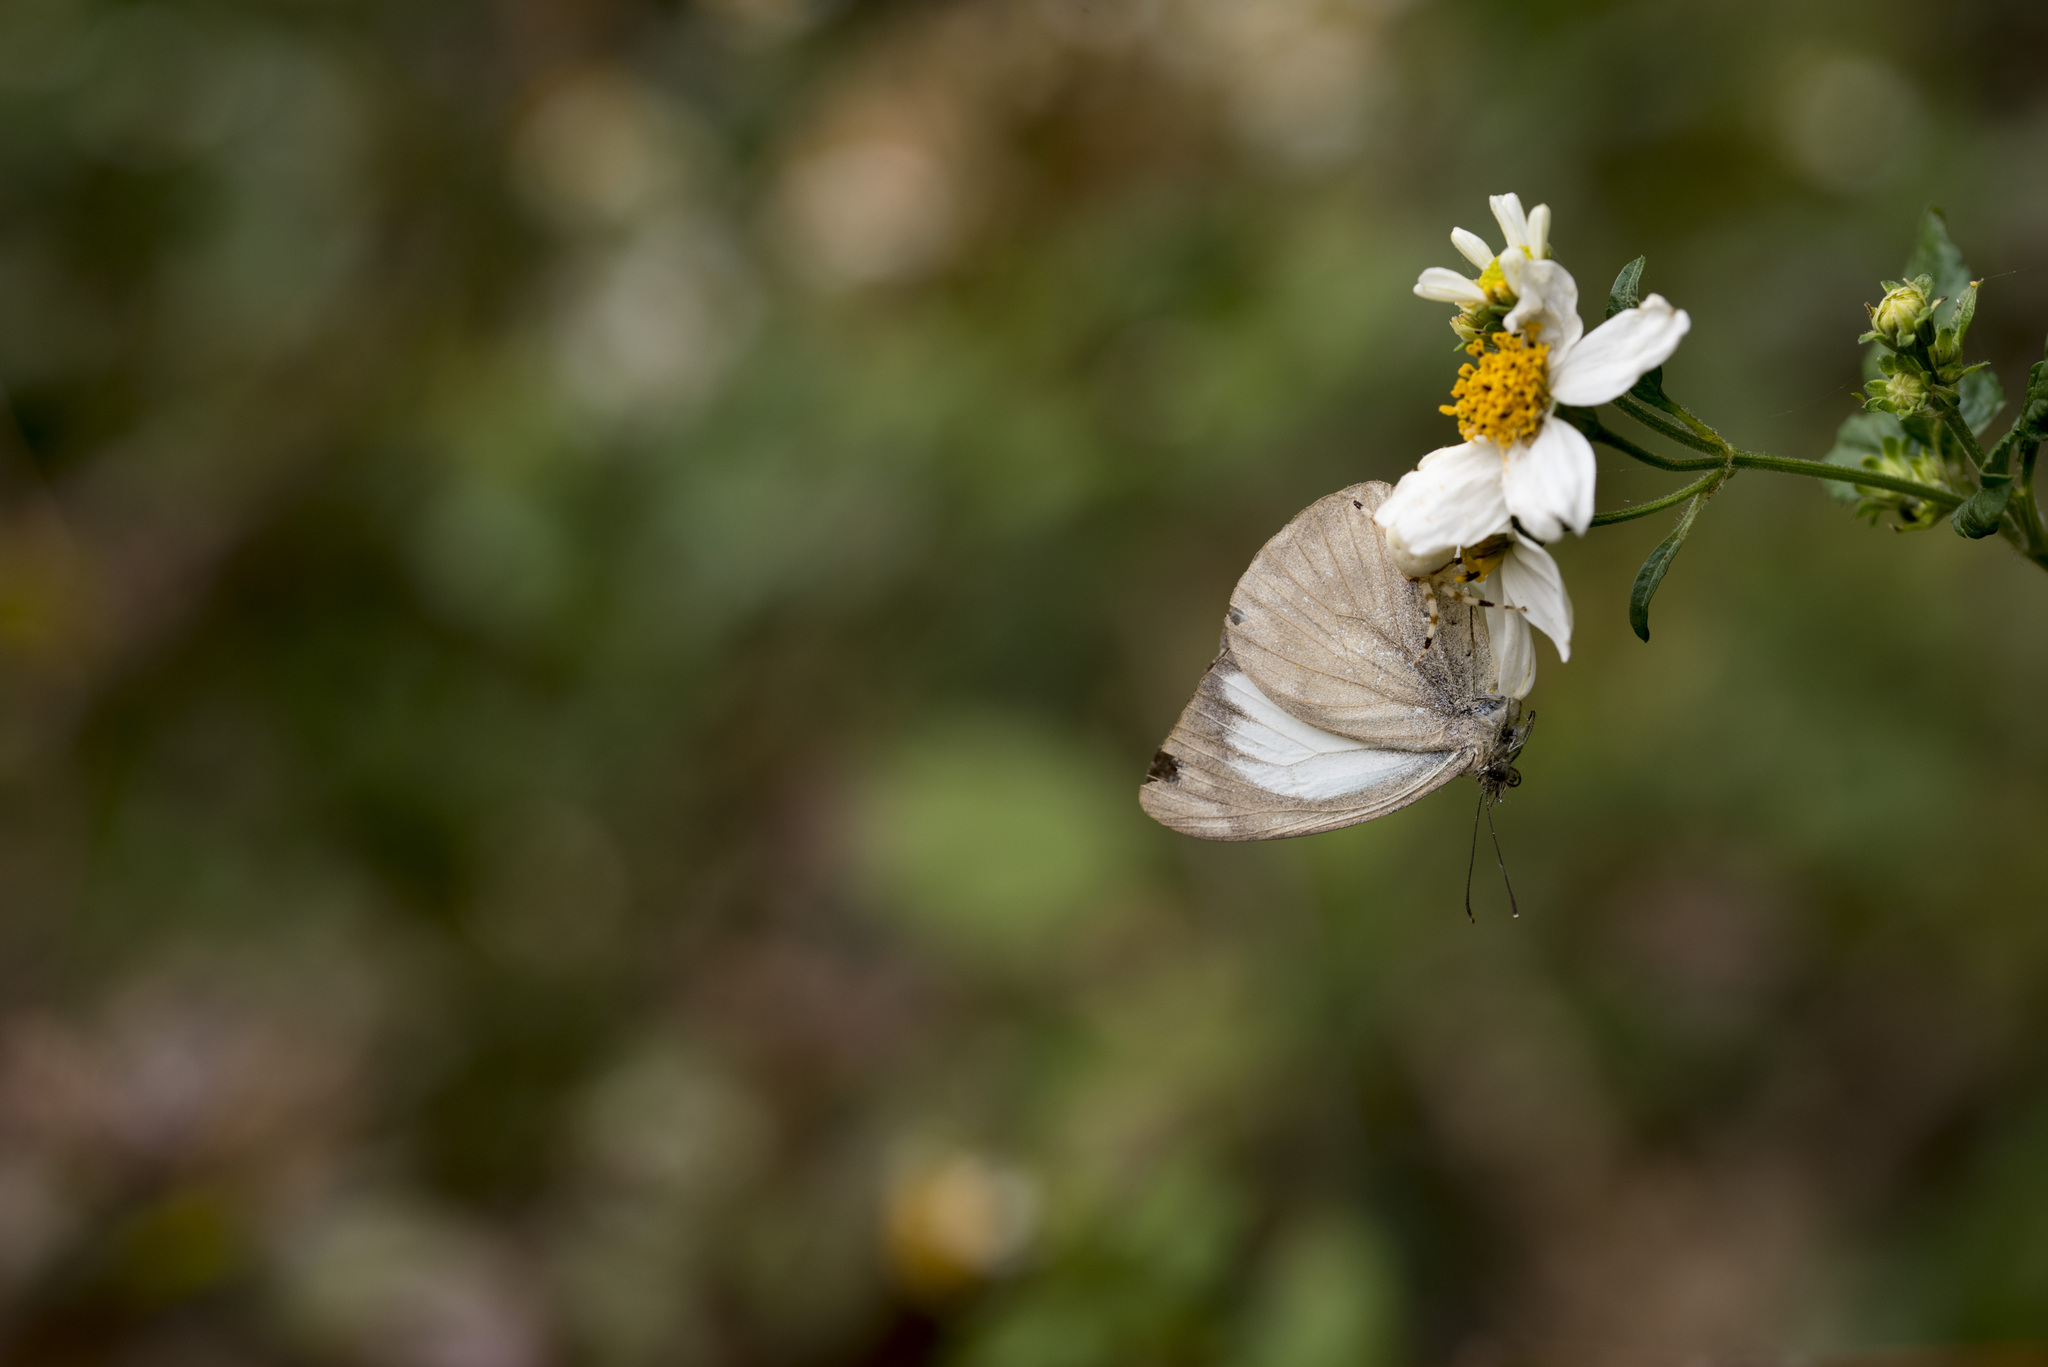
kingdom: Animalia
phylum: Arthropoda
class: Insecta
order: Lepidoptera
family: Pieridae
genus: Cepora
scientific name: Cepora nadina
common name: Lesser gull
